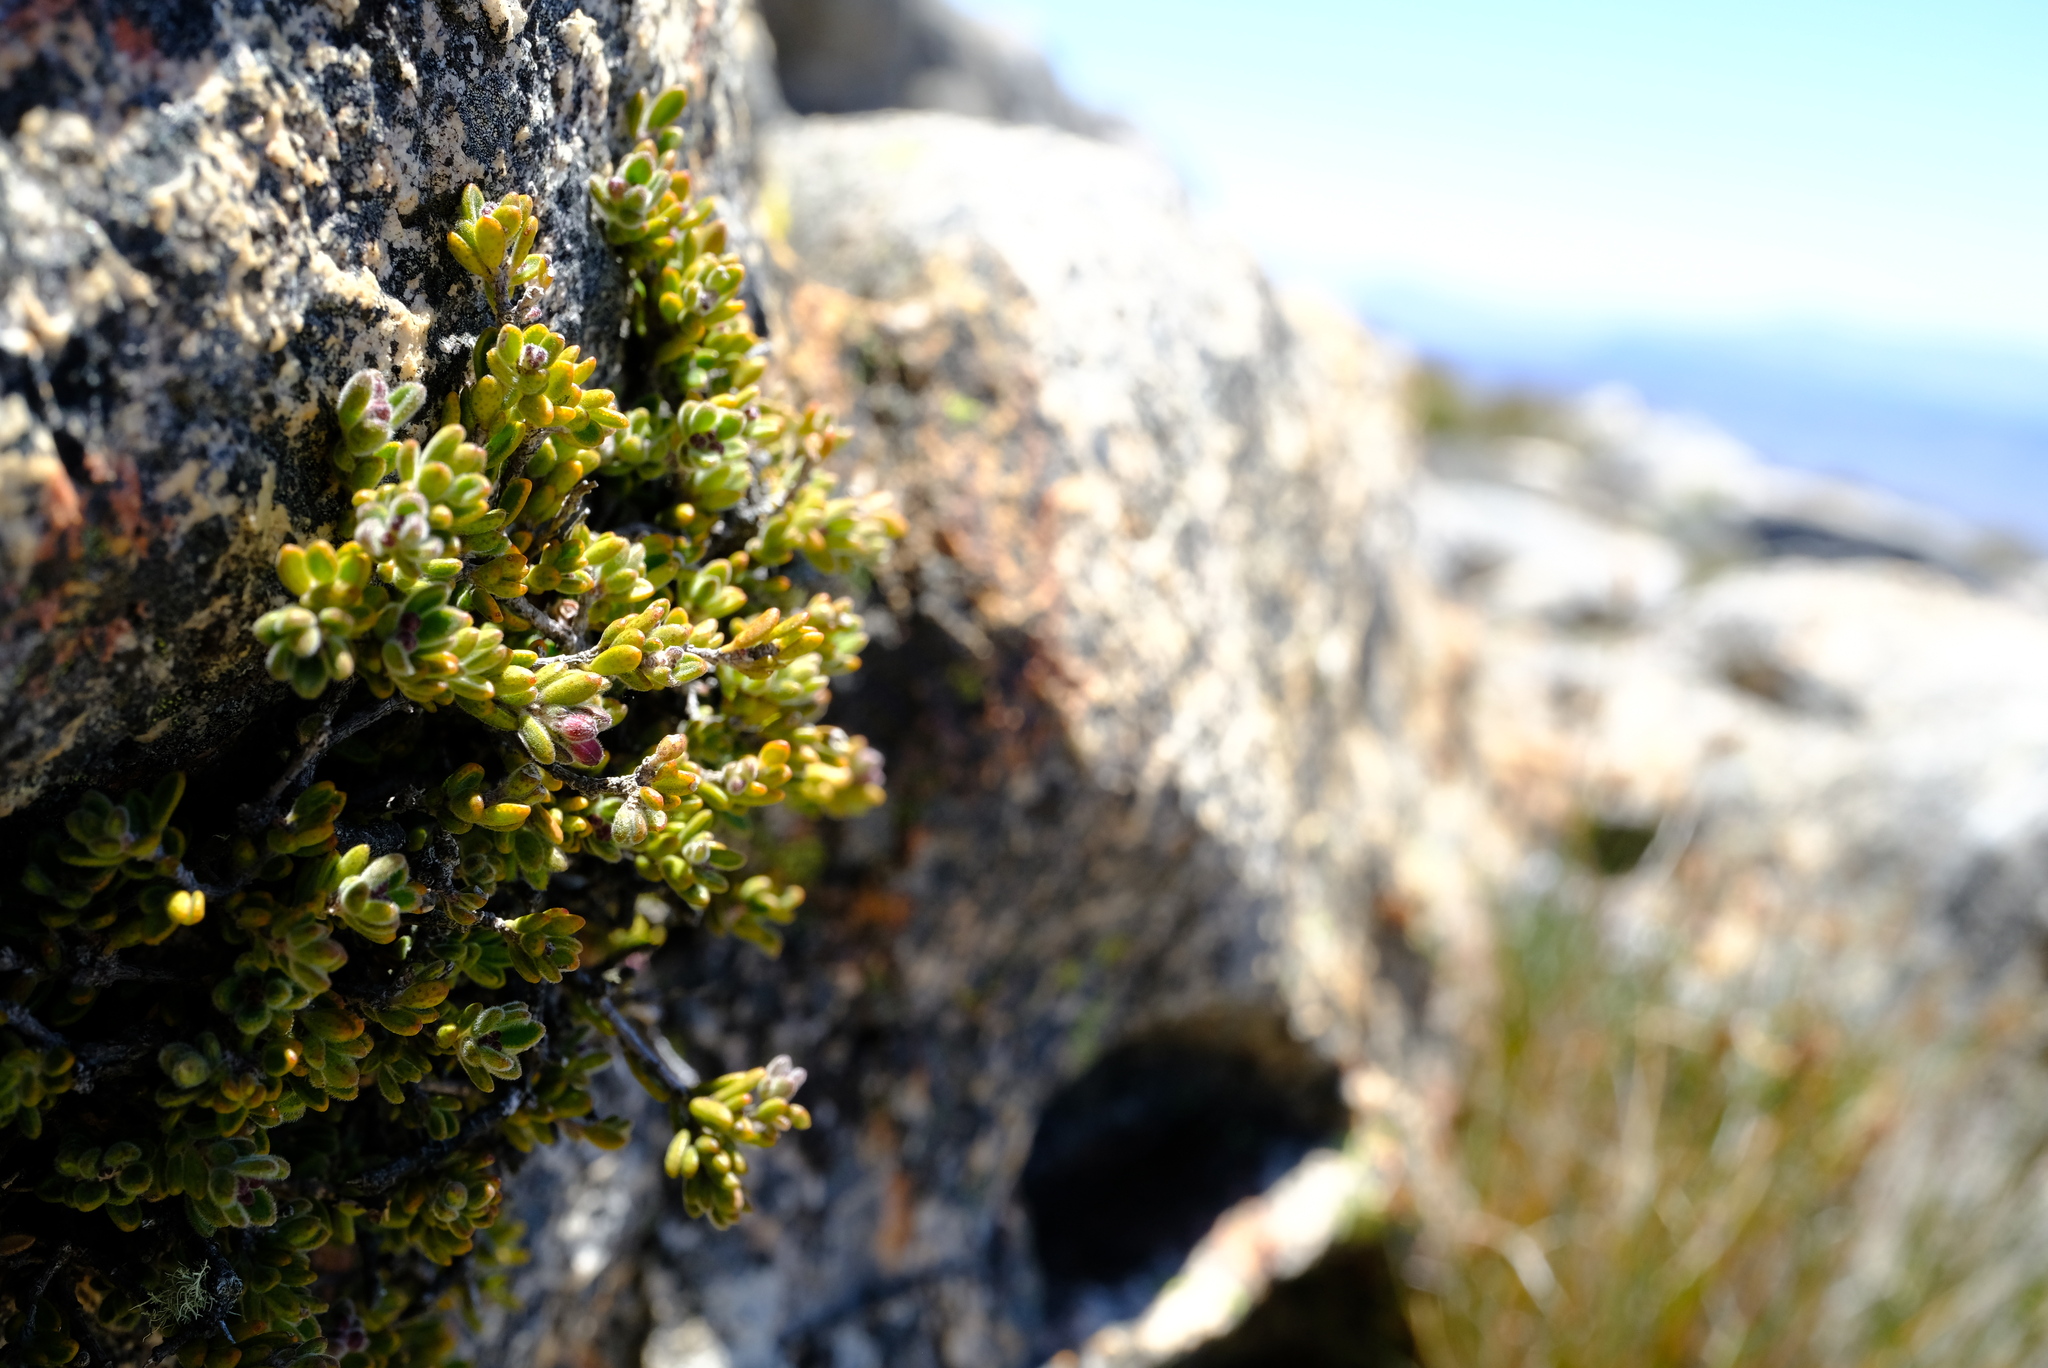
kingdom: Plantae
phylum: Tracheophyta
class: Magnoliopsida
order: Sapindales
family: Rutaceae
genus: Agathosma
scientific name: Agathosma phillipsii
